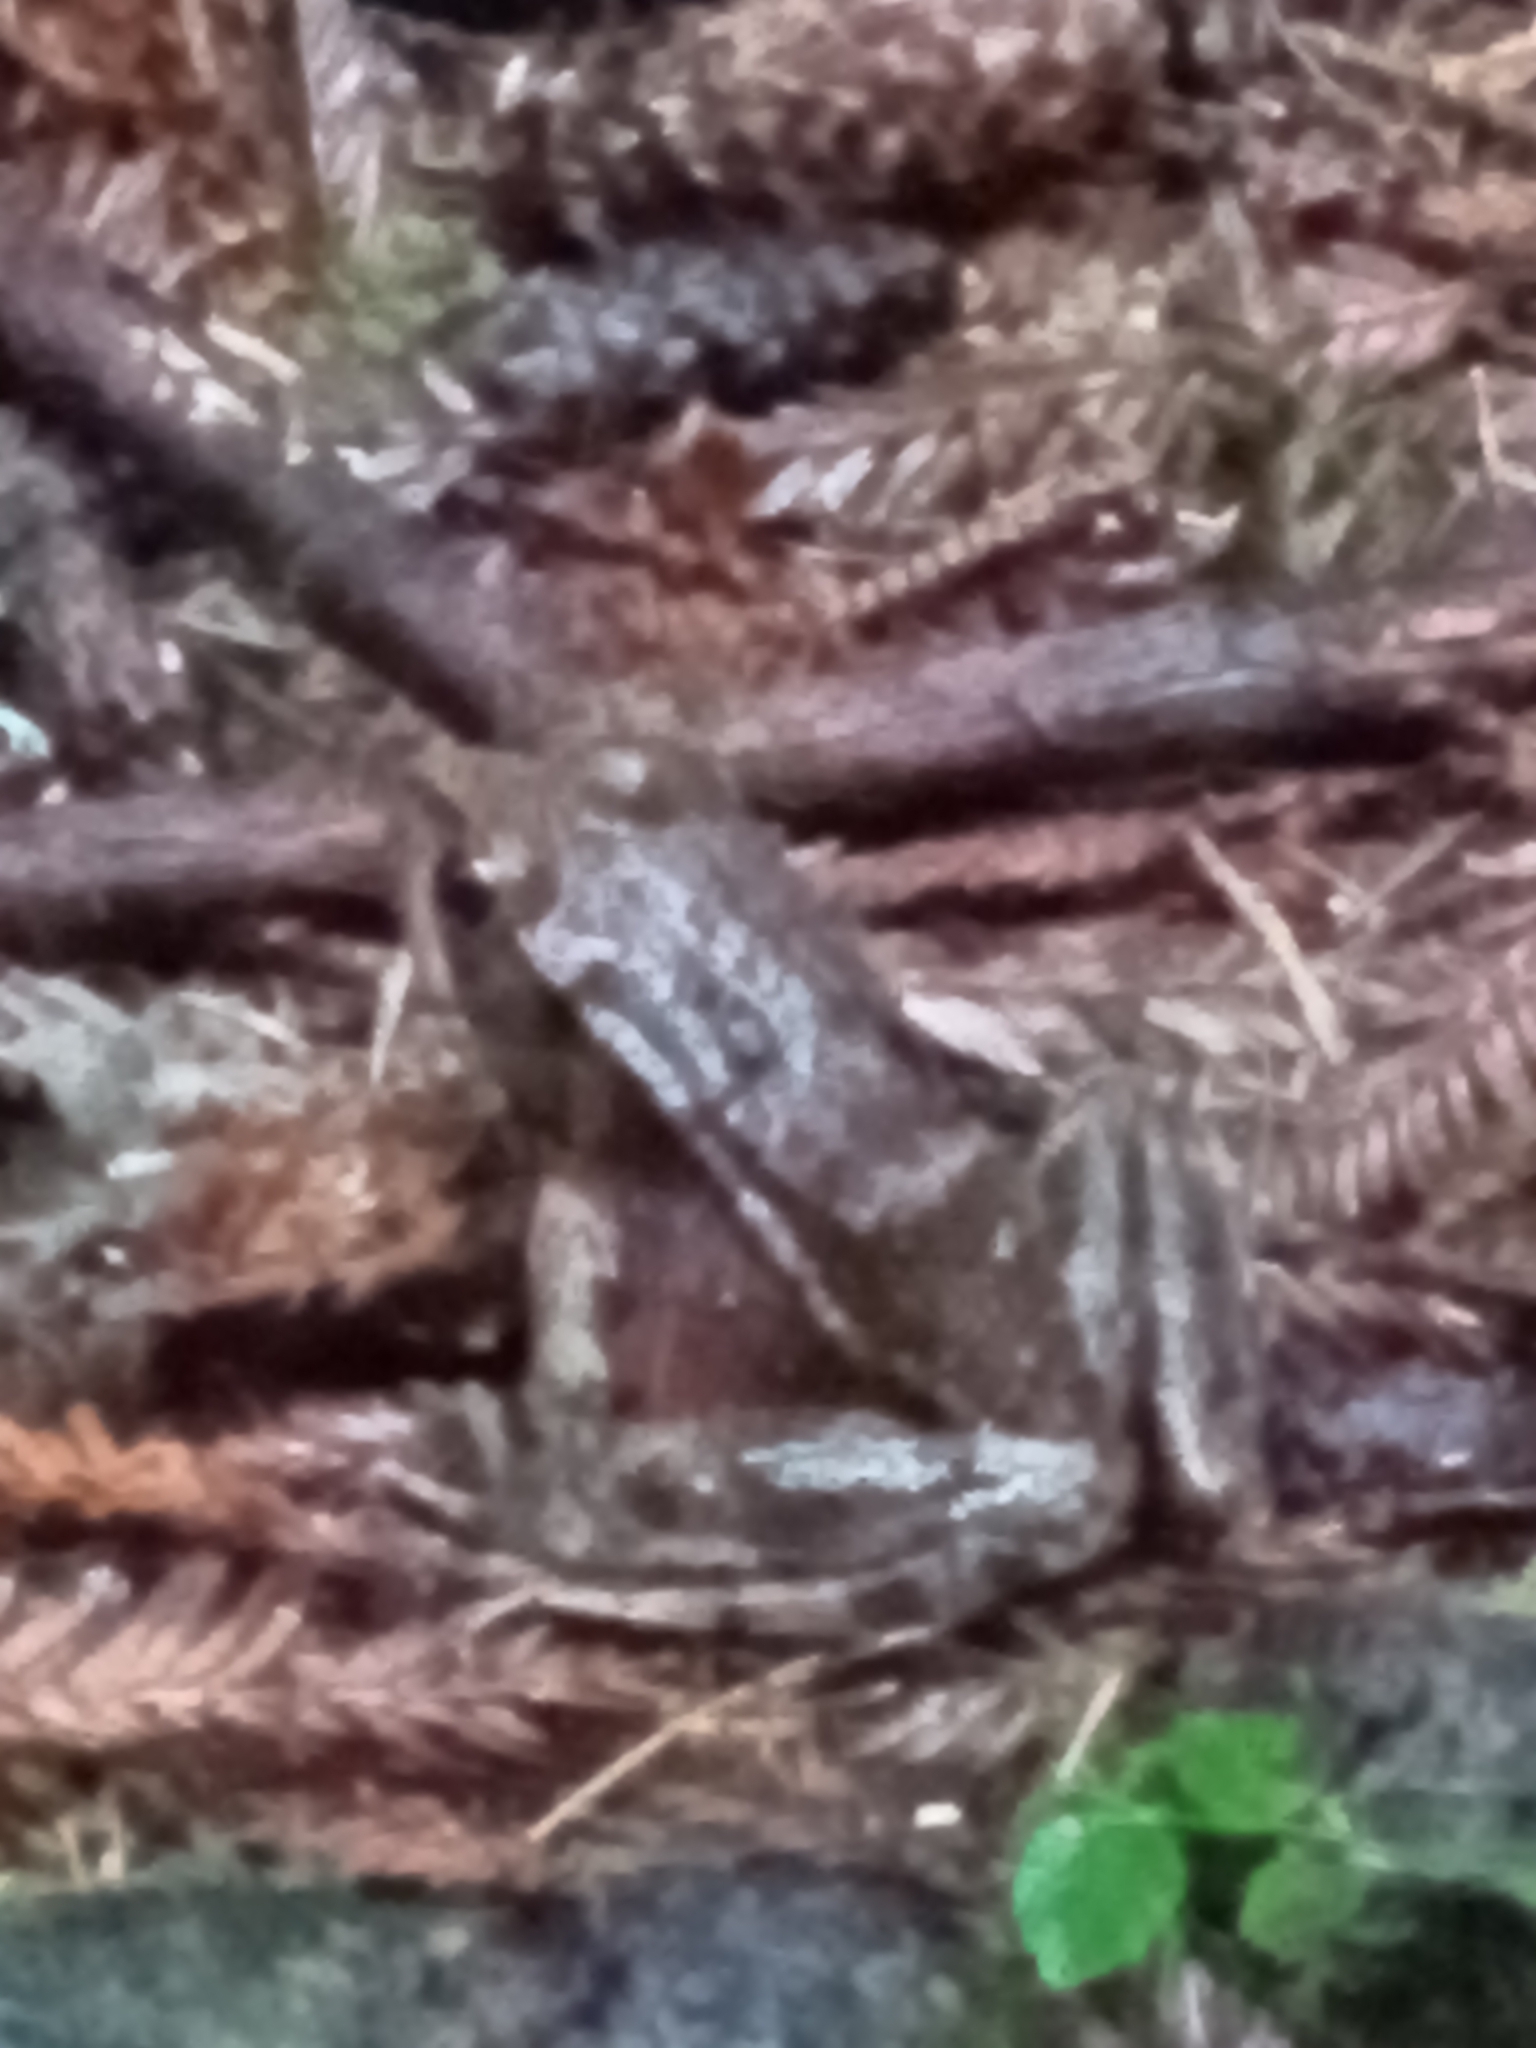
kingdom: Animalia
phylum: Chordata
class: Amphibia
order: Anura
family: Ranidae
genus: Rana
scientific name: Rana aurora
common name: Red-legged frog
